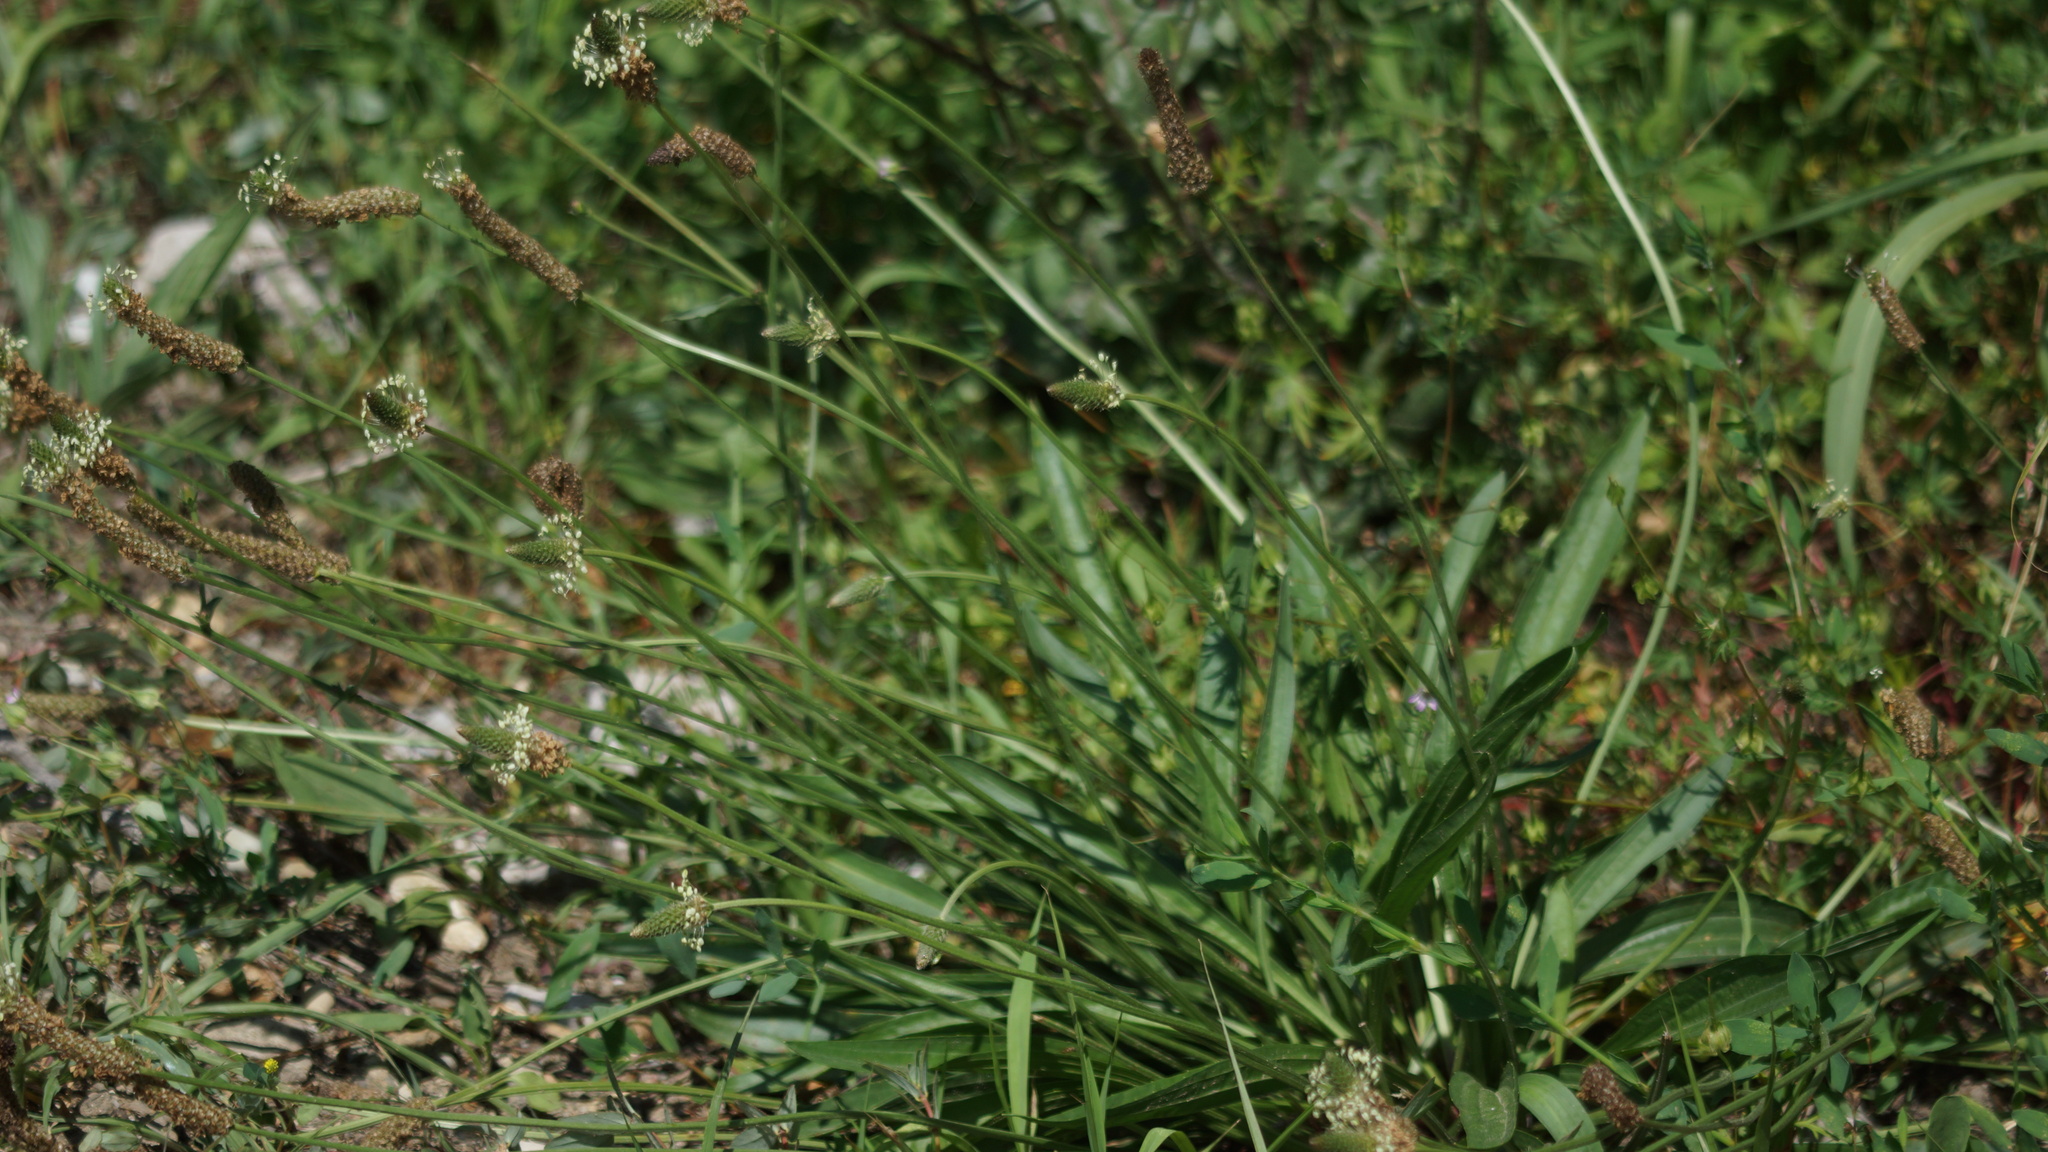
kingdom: Plantae
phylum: Tracheophyta
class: Magnoliopsida
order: Lamiales
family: Plantaginaceae
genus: Plantago
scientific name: Plantago lanceolata
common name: Ribwort plantain
